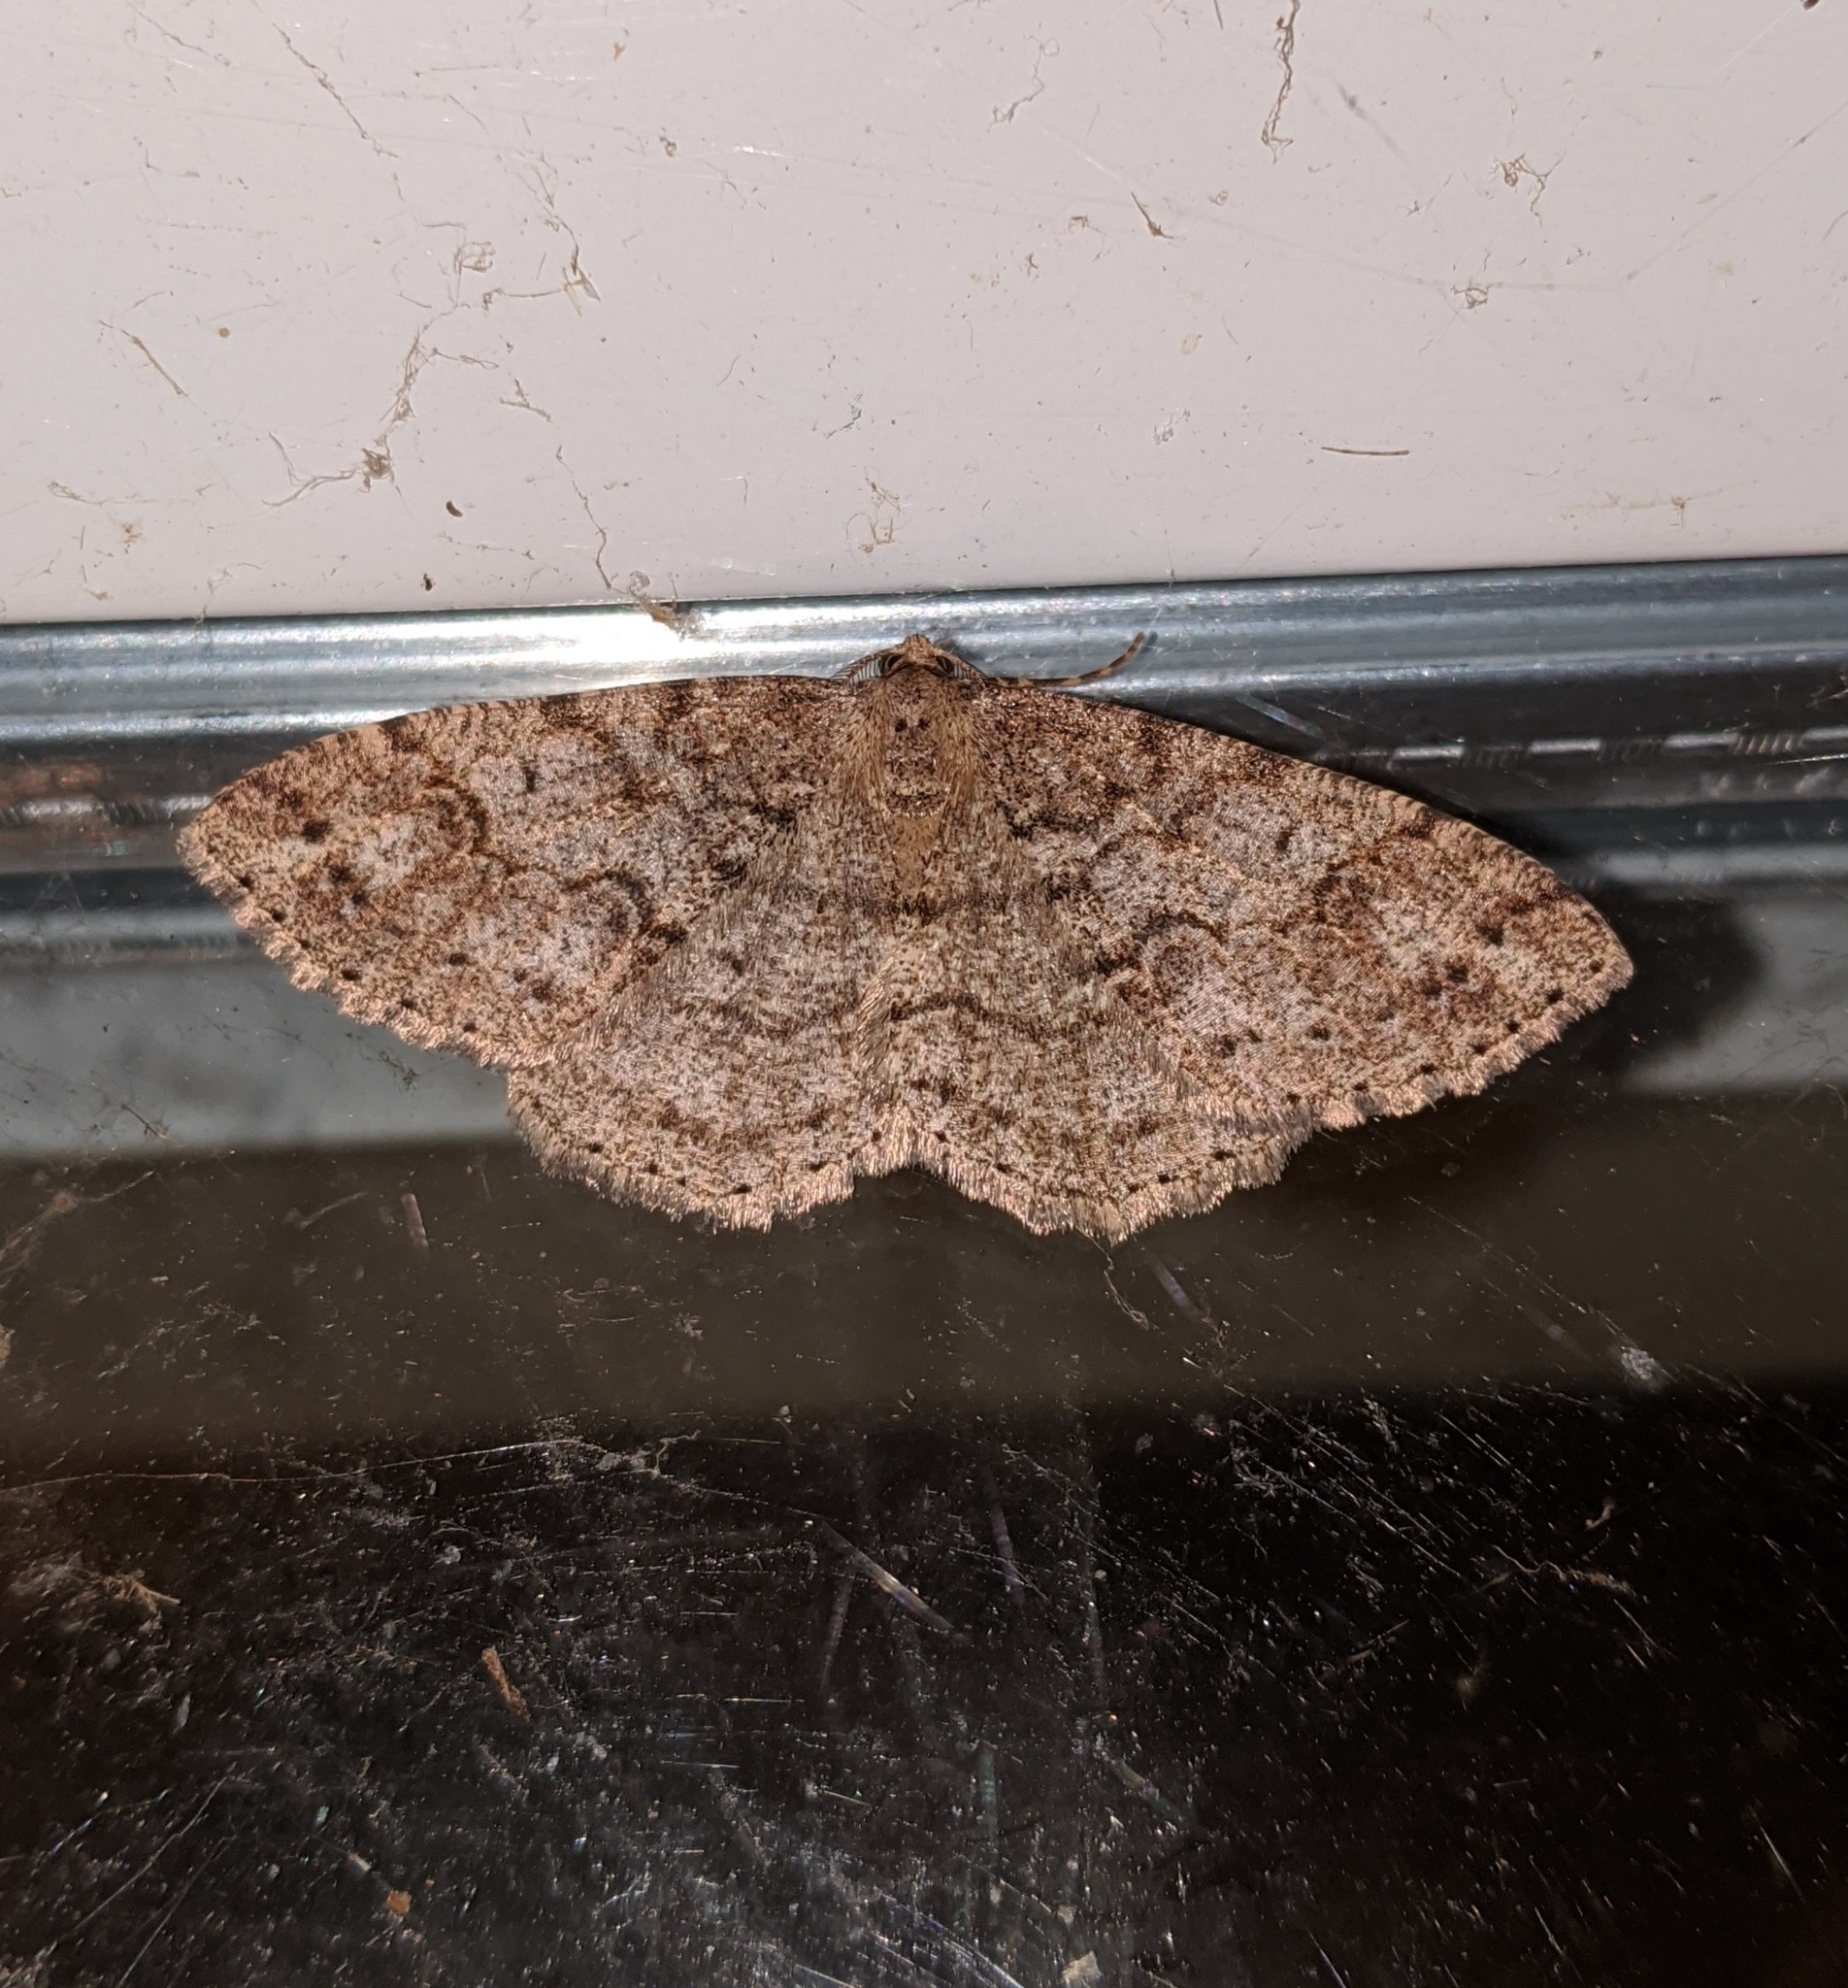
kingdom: Animalia
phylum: Arthropoda
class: Insecta
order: Lepidoptera
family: Geometridae
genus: Melanolophia
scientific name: Melanolophia imitata
